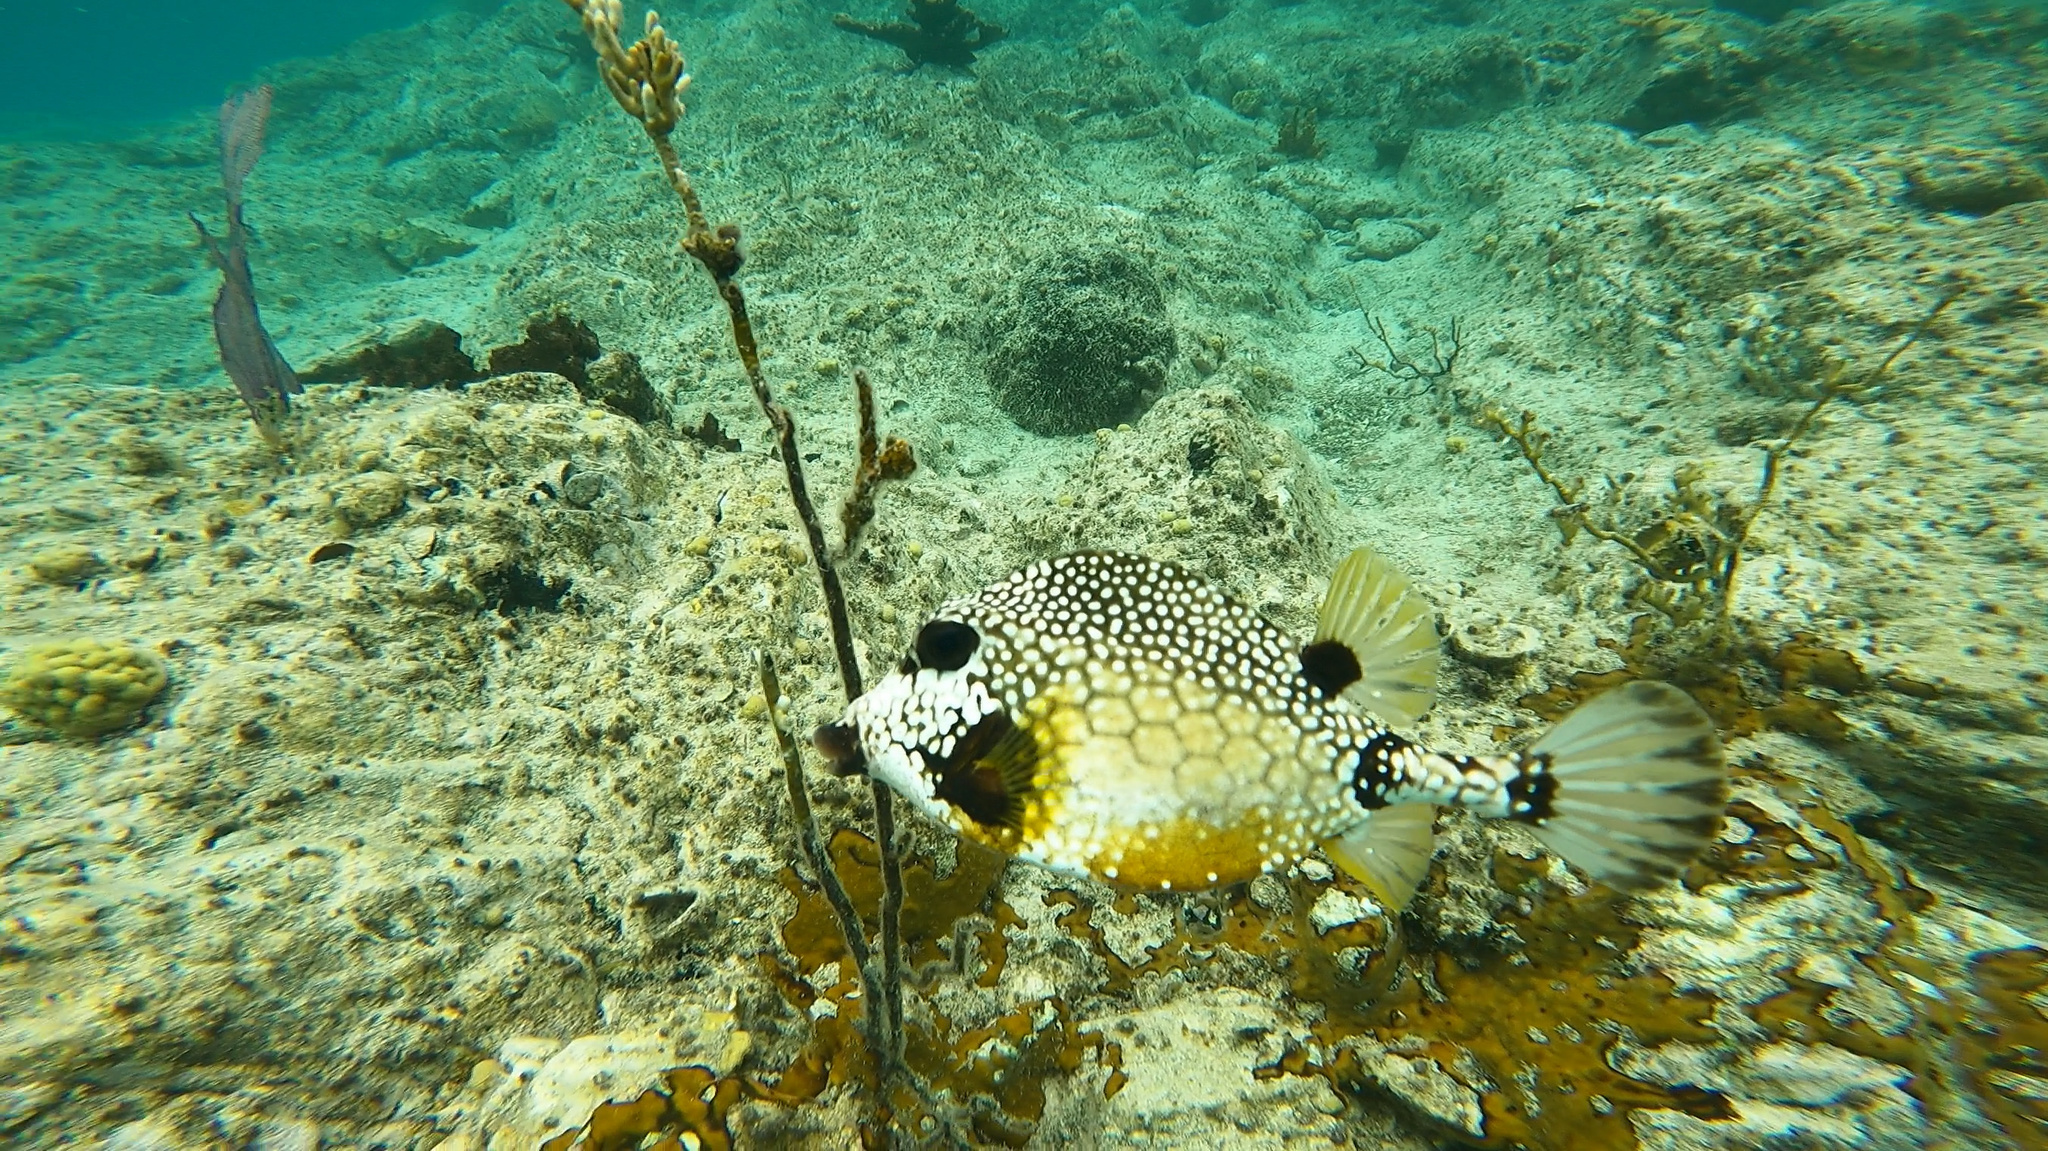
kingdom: Animalia
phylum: Chordata
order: Tetraodontiformes
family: Ostraciidae
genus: Lactophrys
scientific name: Lactophrys triqueter
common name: Smooth trunkfish
